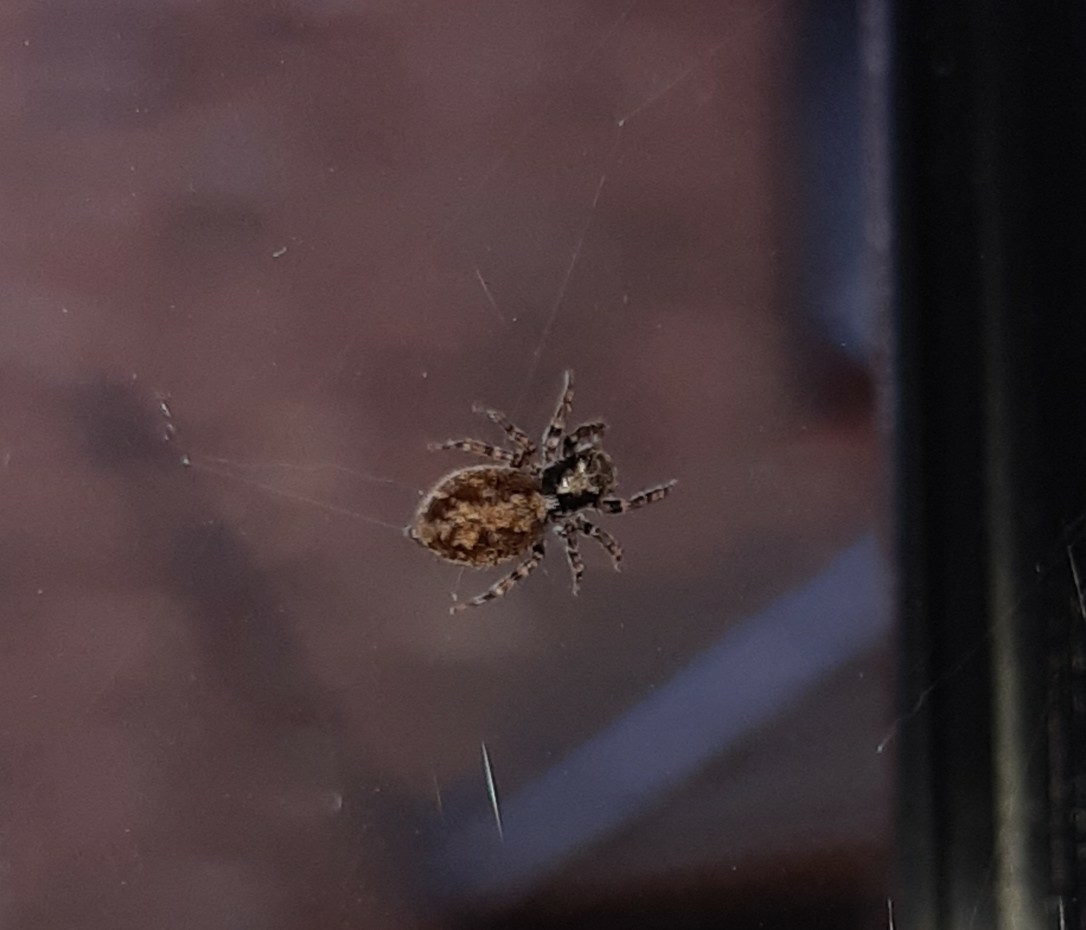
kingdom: Animalia
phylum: Arthropoda
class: Arachnida
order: Araneae
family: Salticidae
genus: Pseudeuophrys
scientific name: Pseudeuophrys lanigera
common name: Jumping spider
